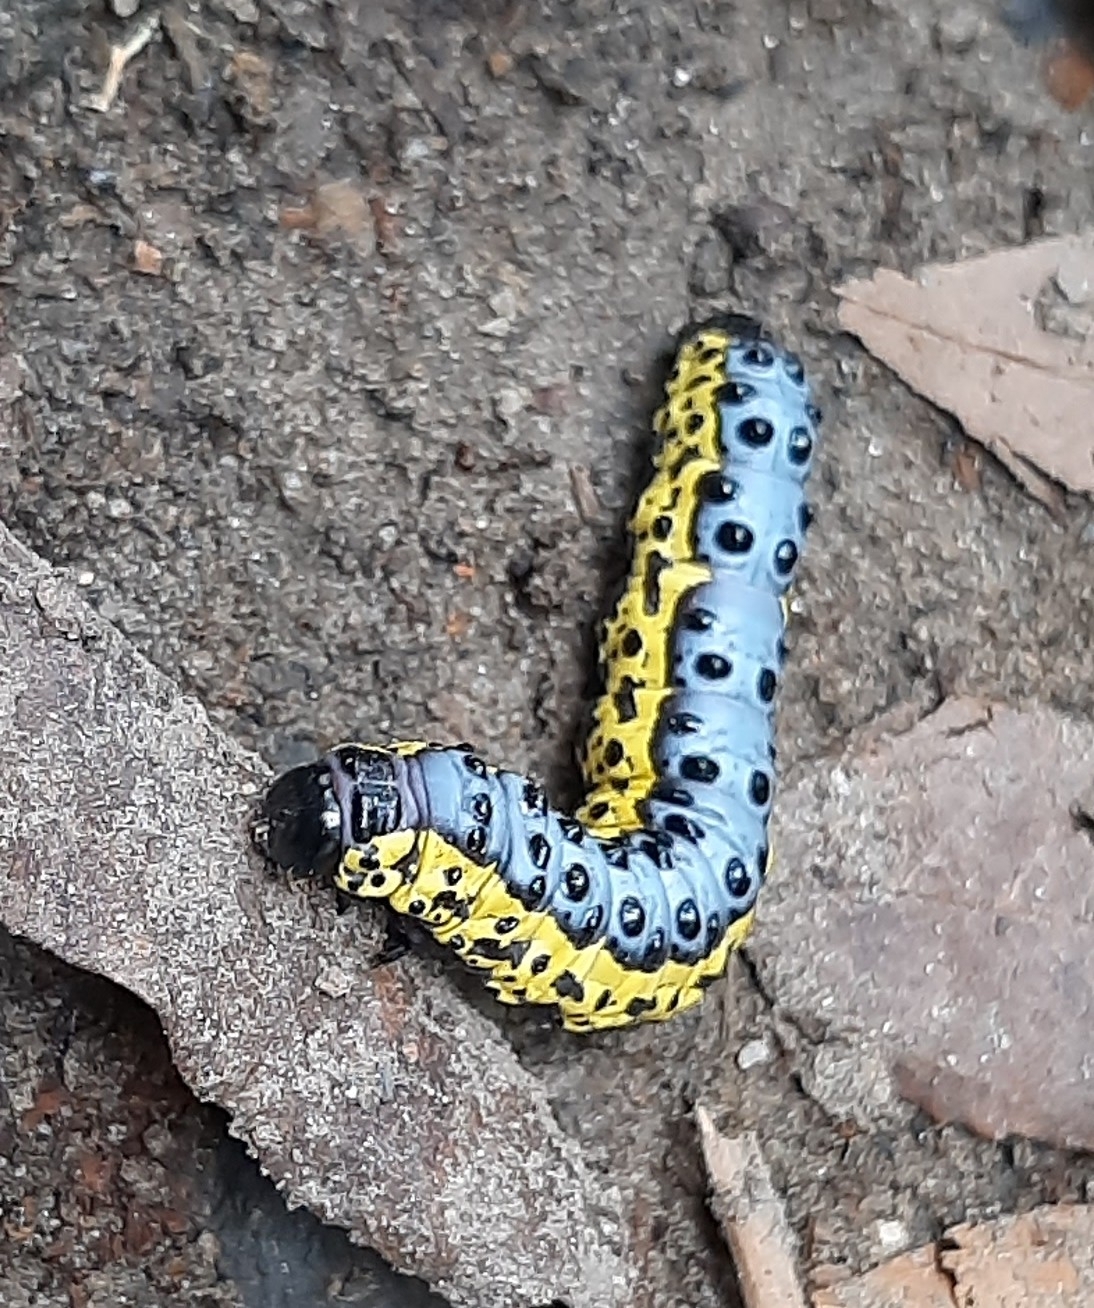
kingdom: Animalia
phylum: Arthropoda
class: Insecta
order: Lepidoptera
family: Notodontidae
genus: Lobeza
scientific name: Lobeza medina
